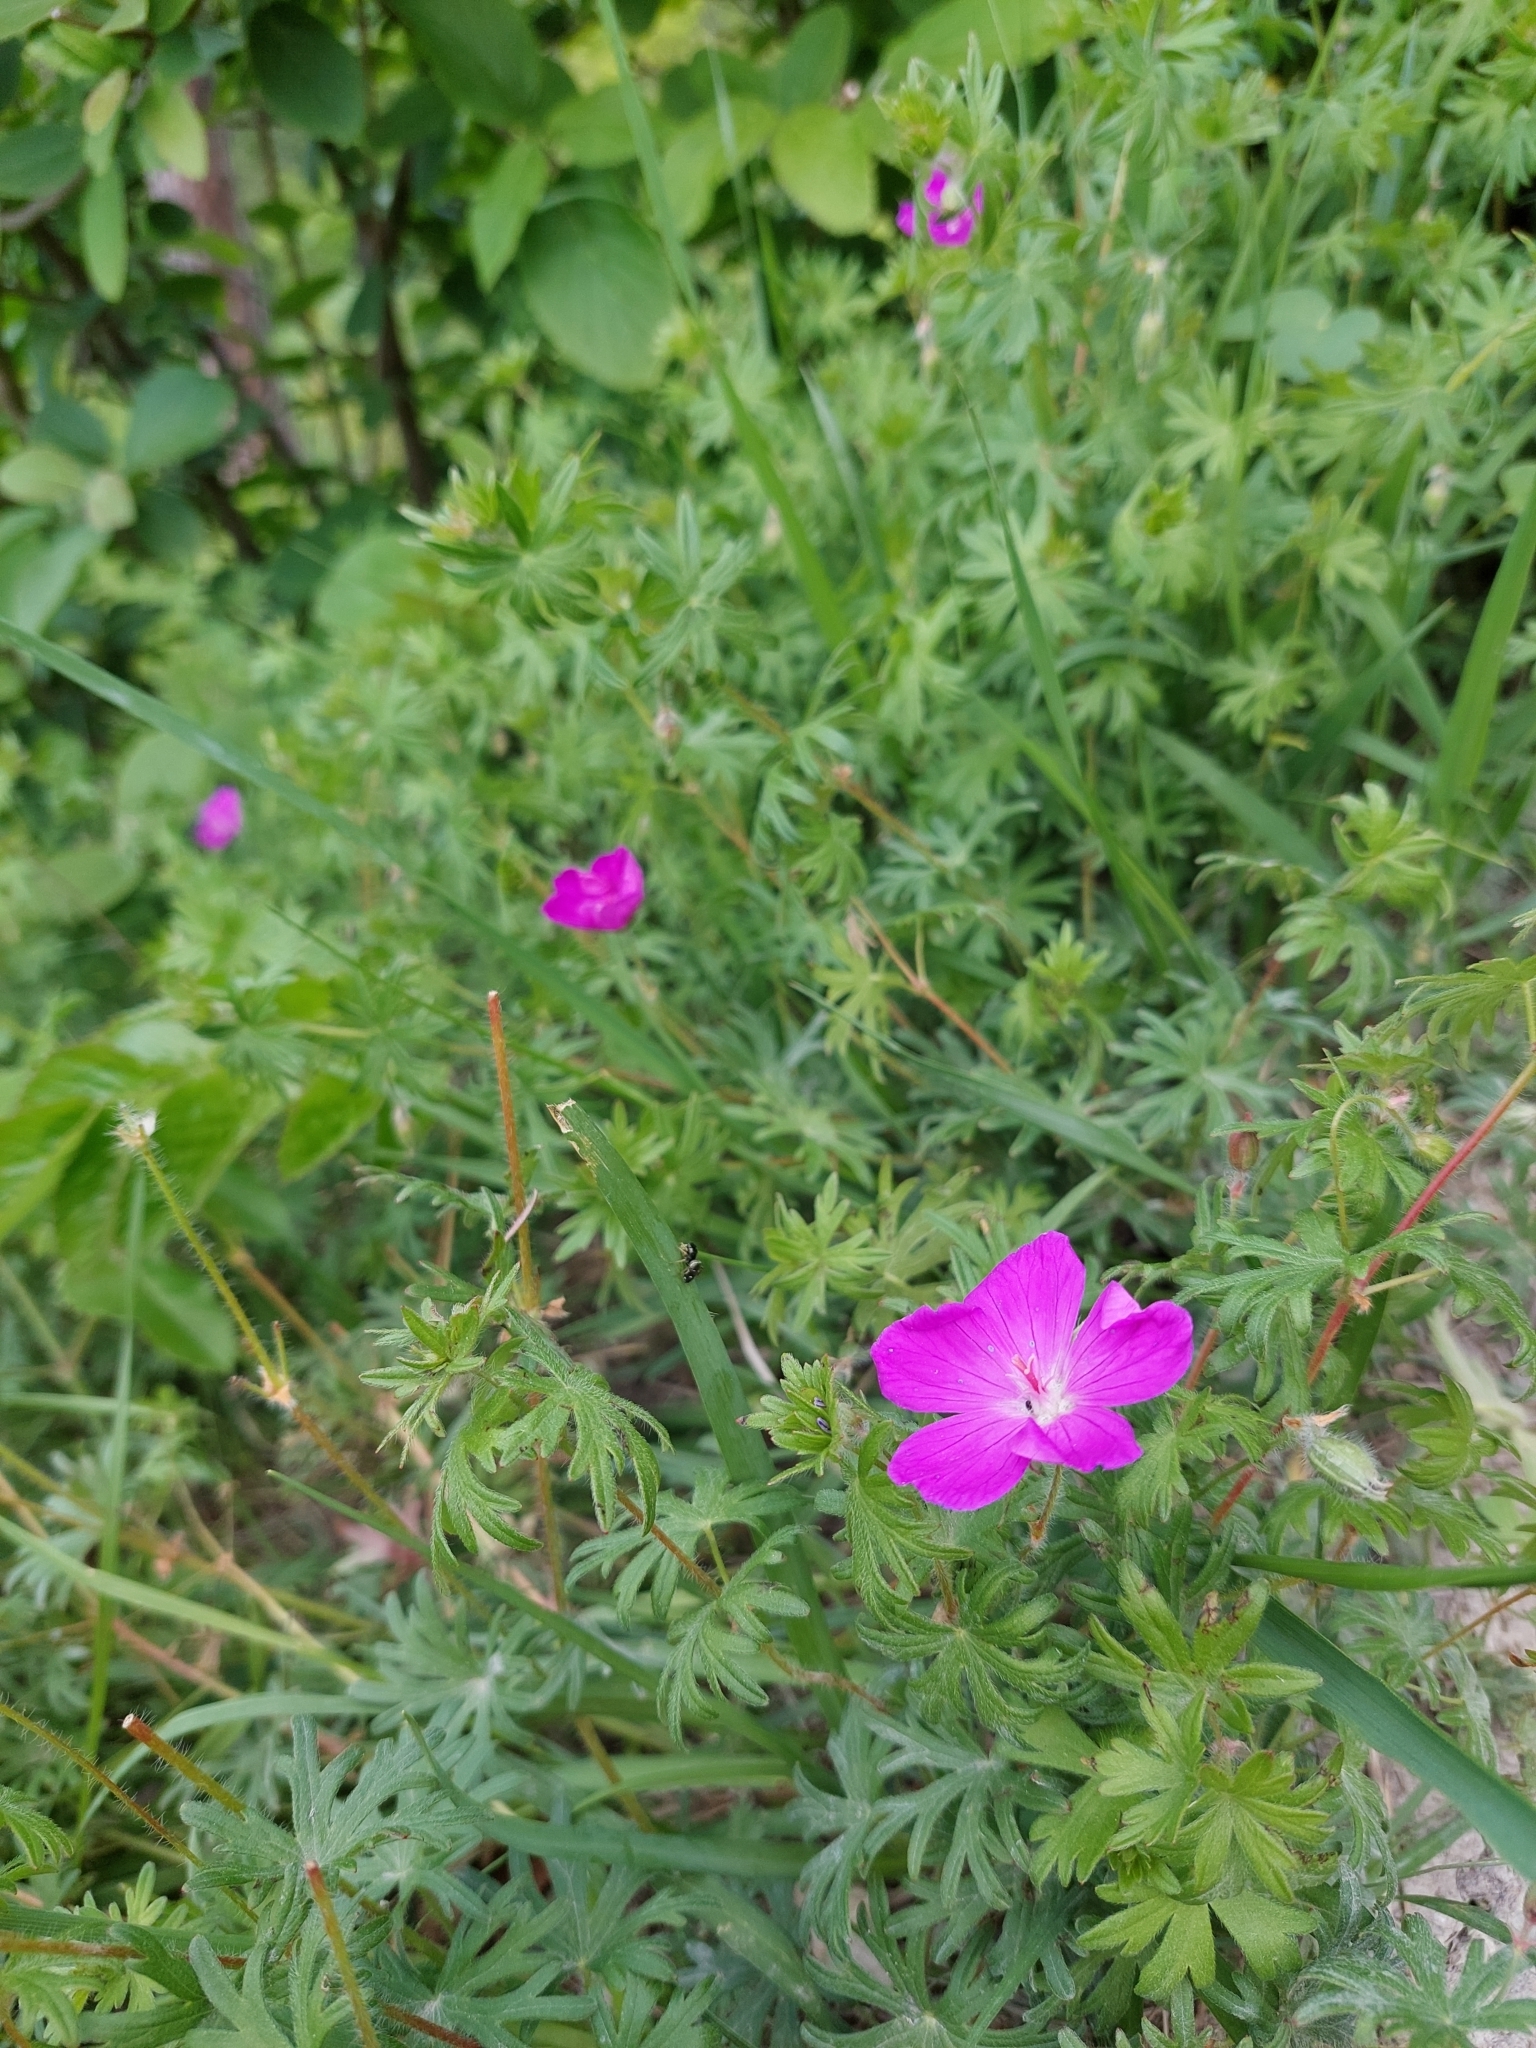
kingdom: Plantae
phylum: Tracheophyta
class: Magnoliopsida
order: Geraniales
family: Geraniaceae
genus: Geranium
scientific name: Geranium sanguineum
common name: Bloody crane's-bill
